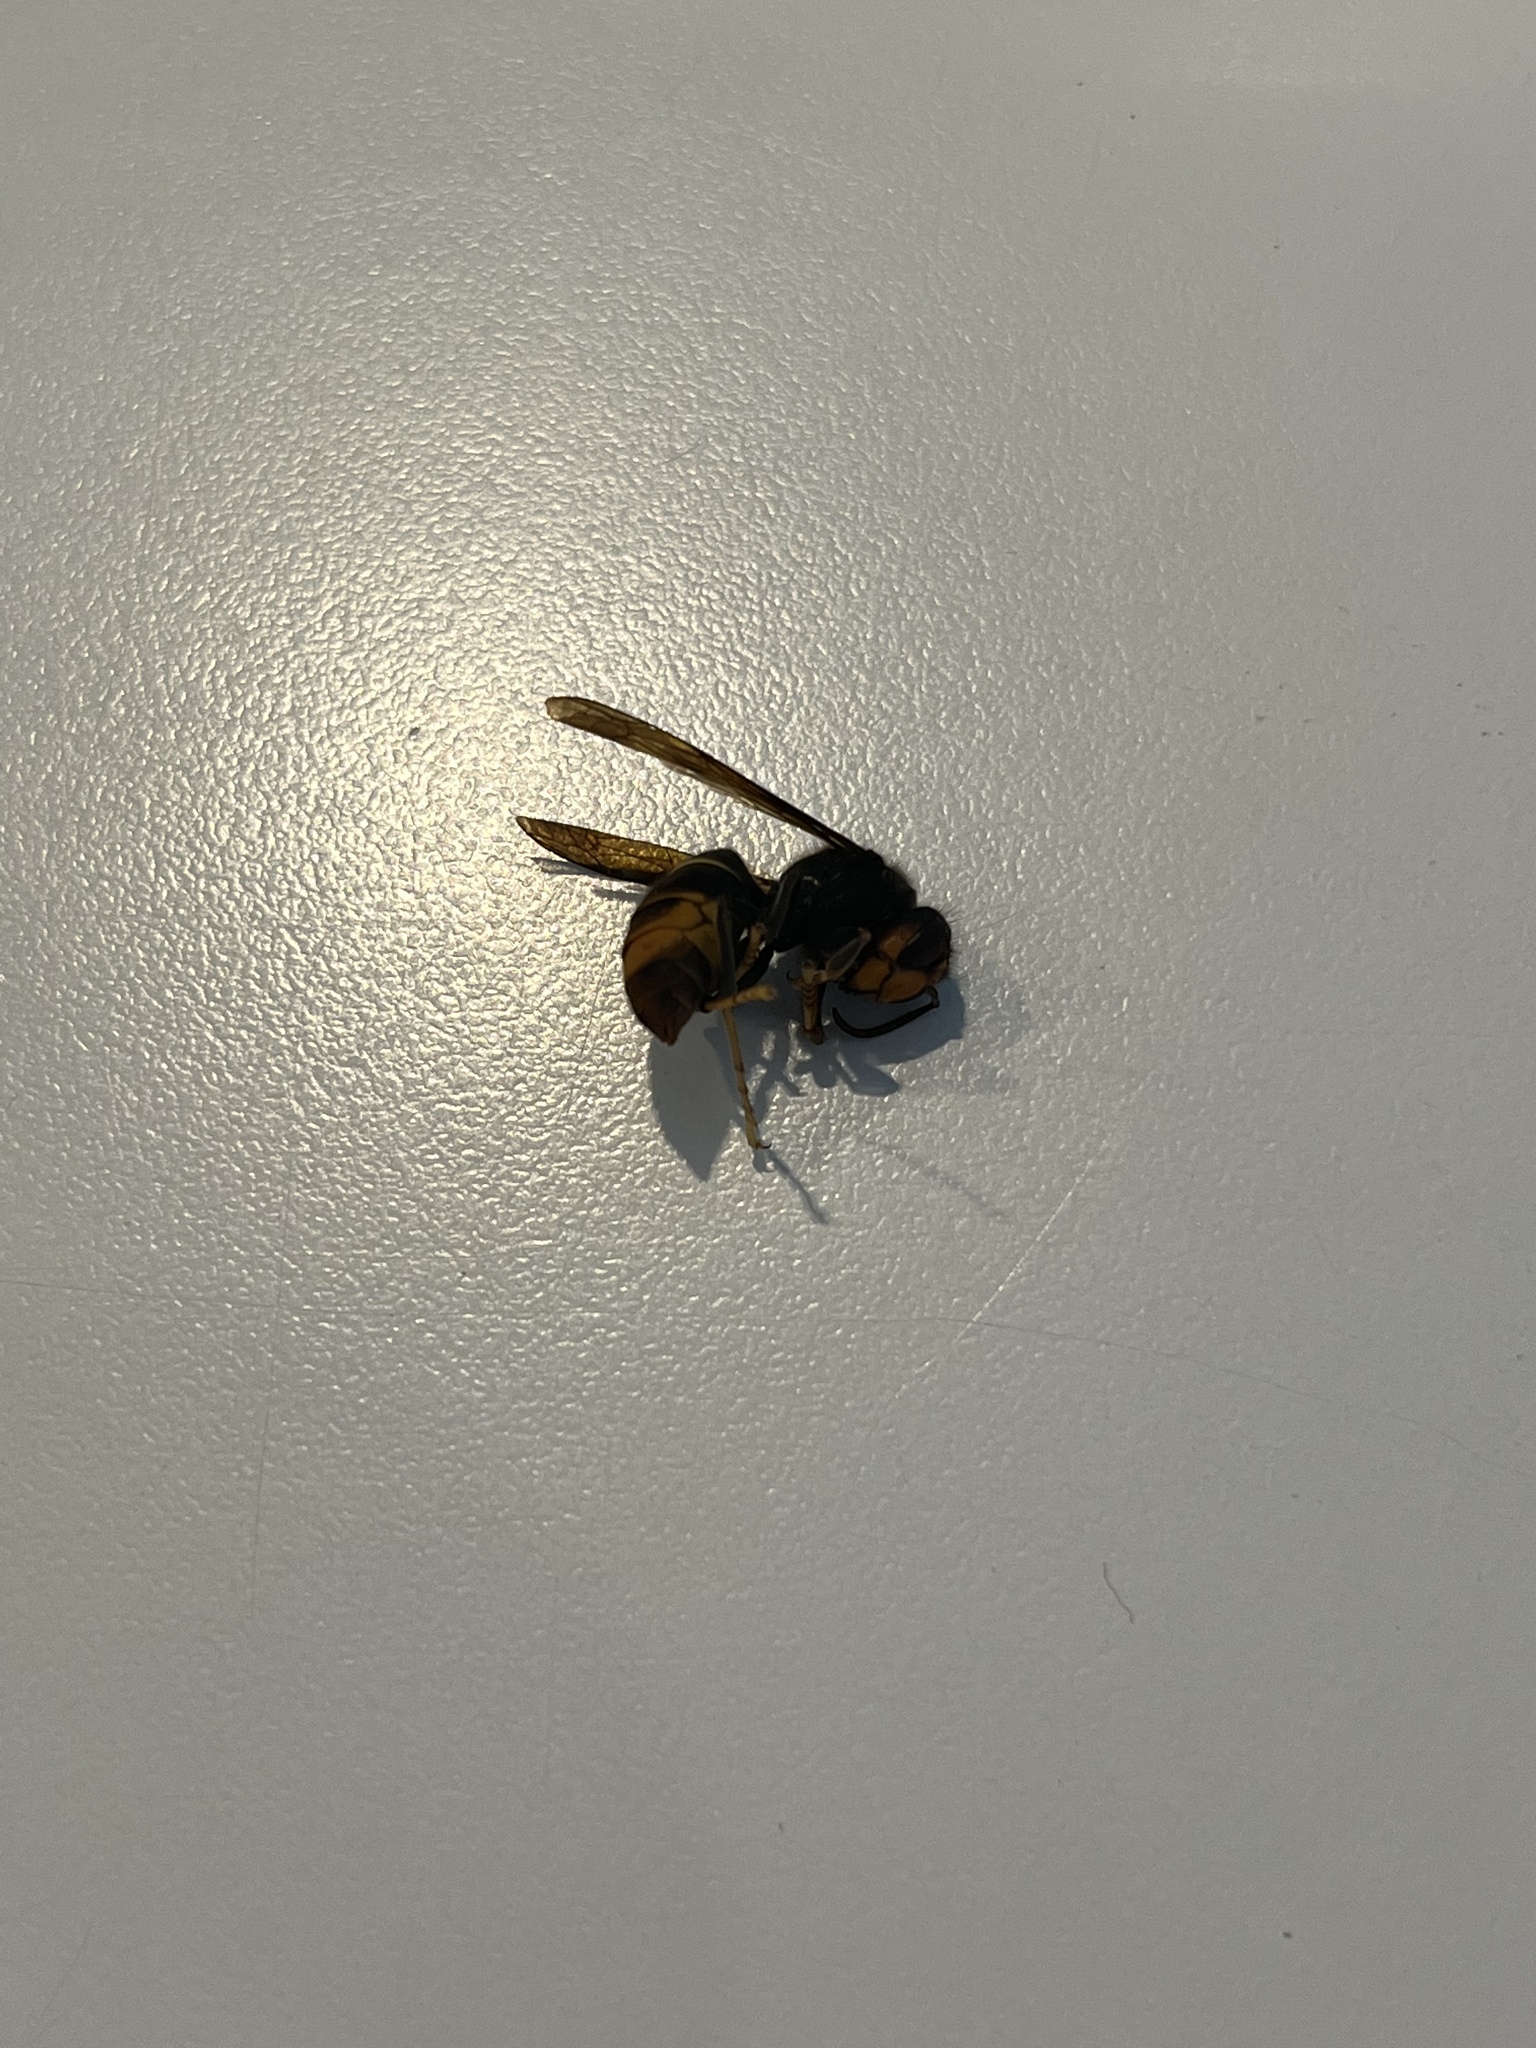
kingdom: Animalia
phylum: Arthropoda
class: Insecta
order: Hymenoptera
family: Vespidae
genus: Vespa
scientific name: Vespa velutina
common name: Asian hornet
